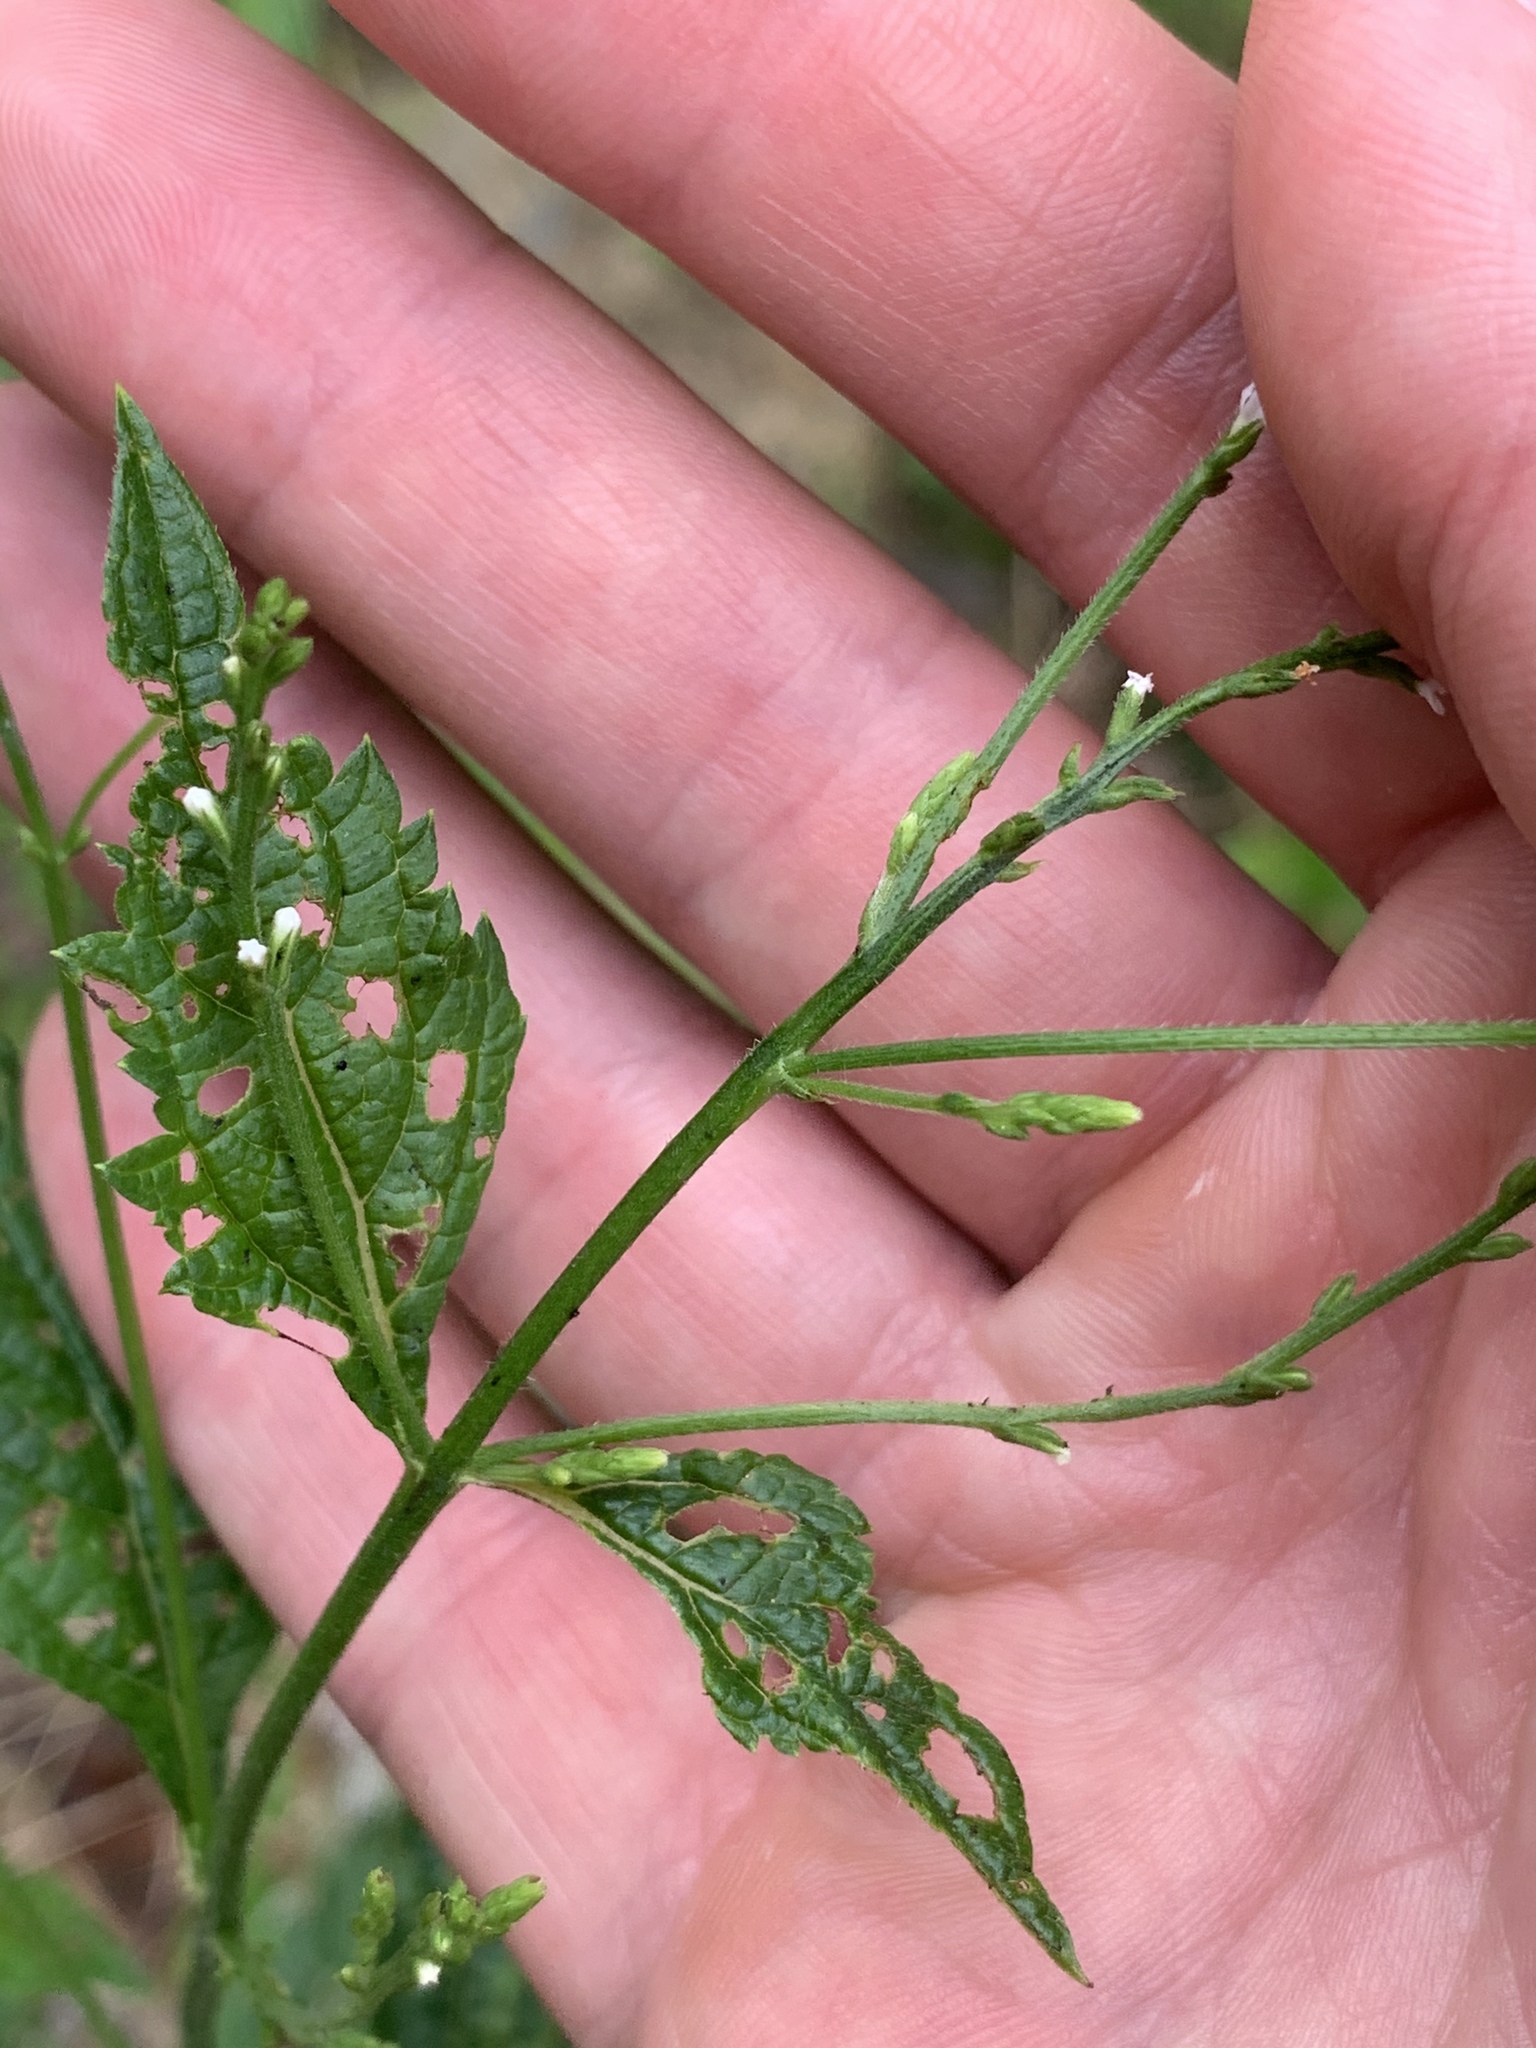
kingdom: Plantae
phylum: Tracheophyta
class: Magnoliopsida
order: Lamiales
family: Verbenaceae
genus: Verbena
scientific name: Verbena urticifolia
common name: Nettle-leaved vervain
